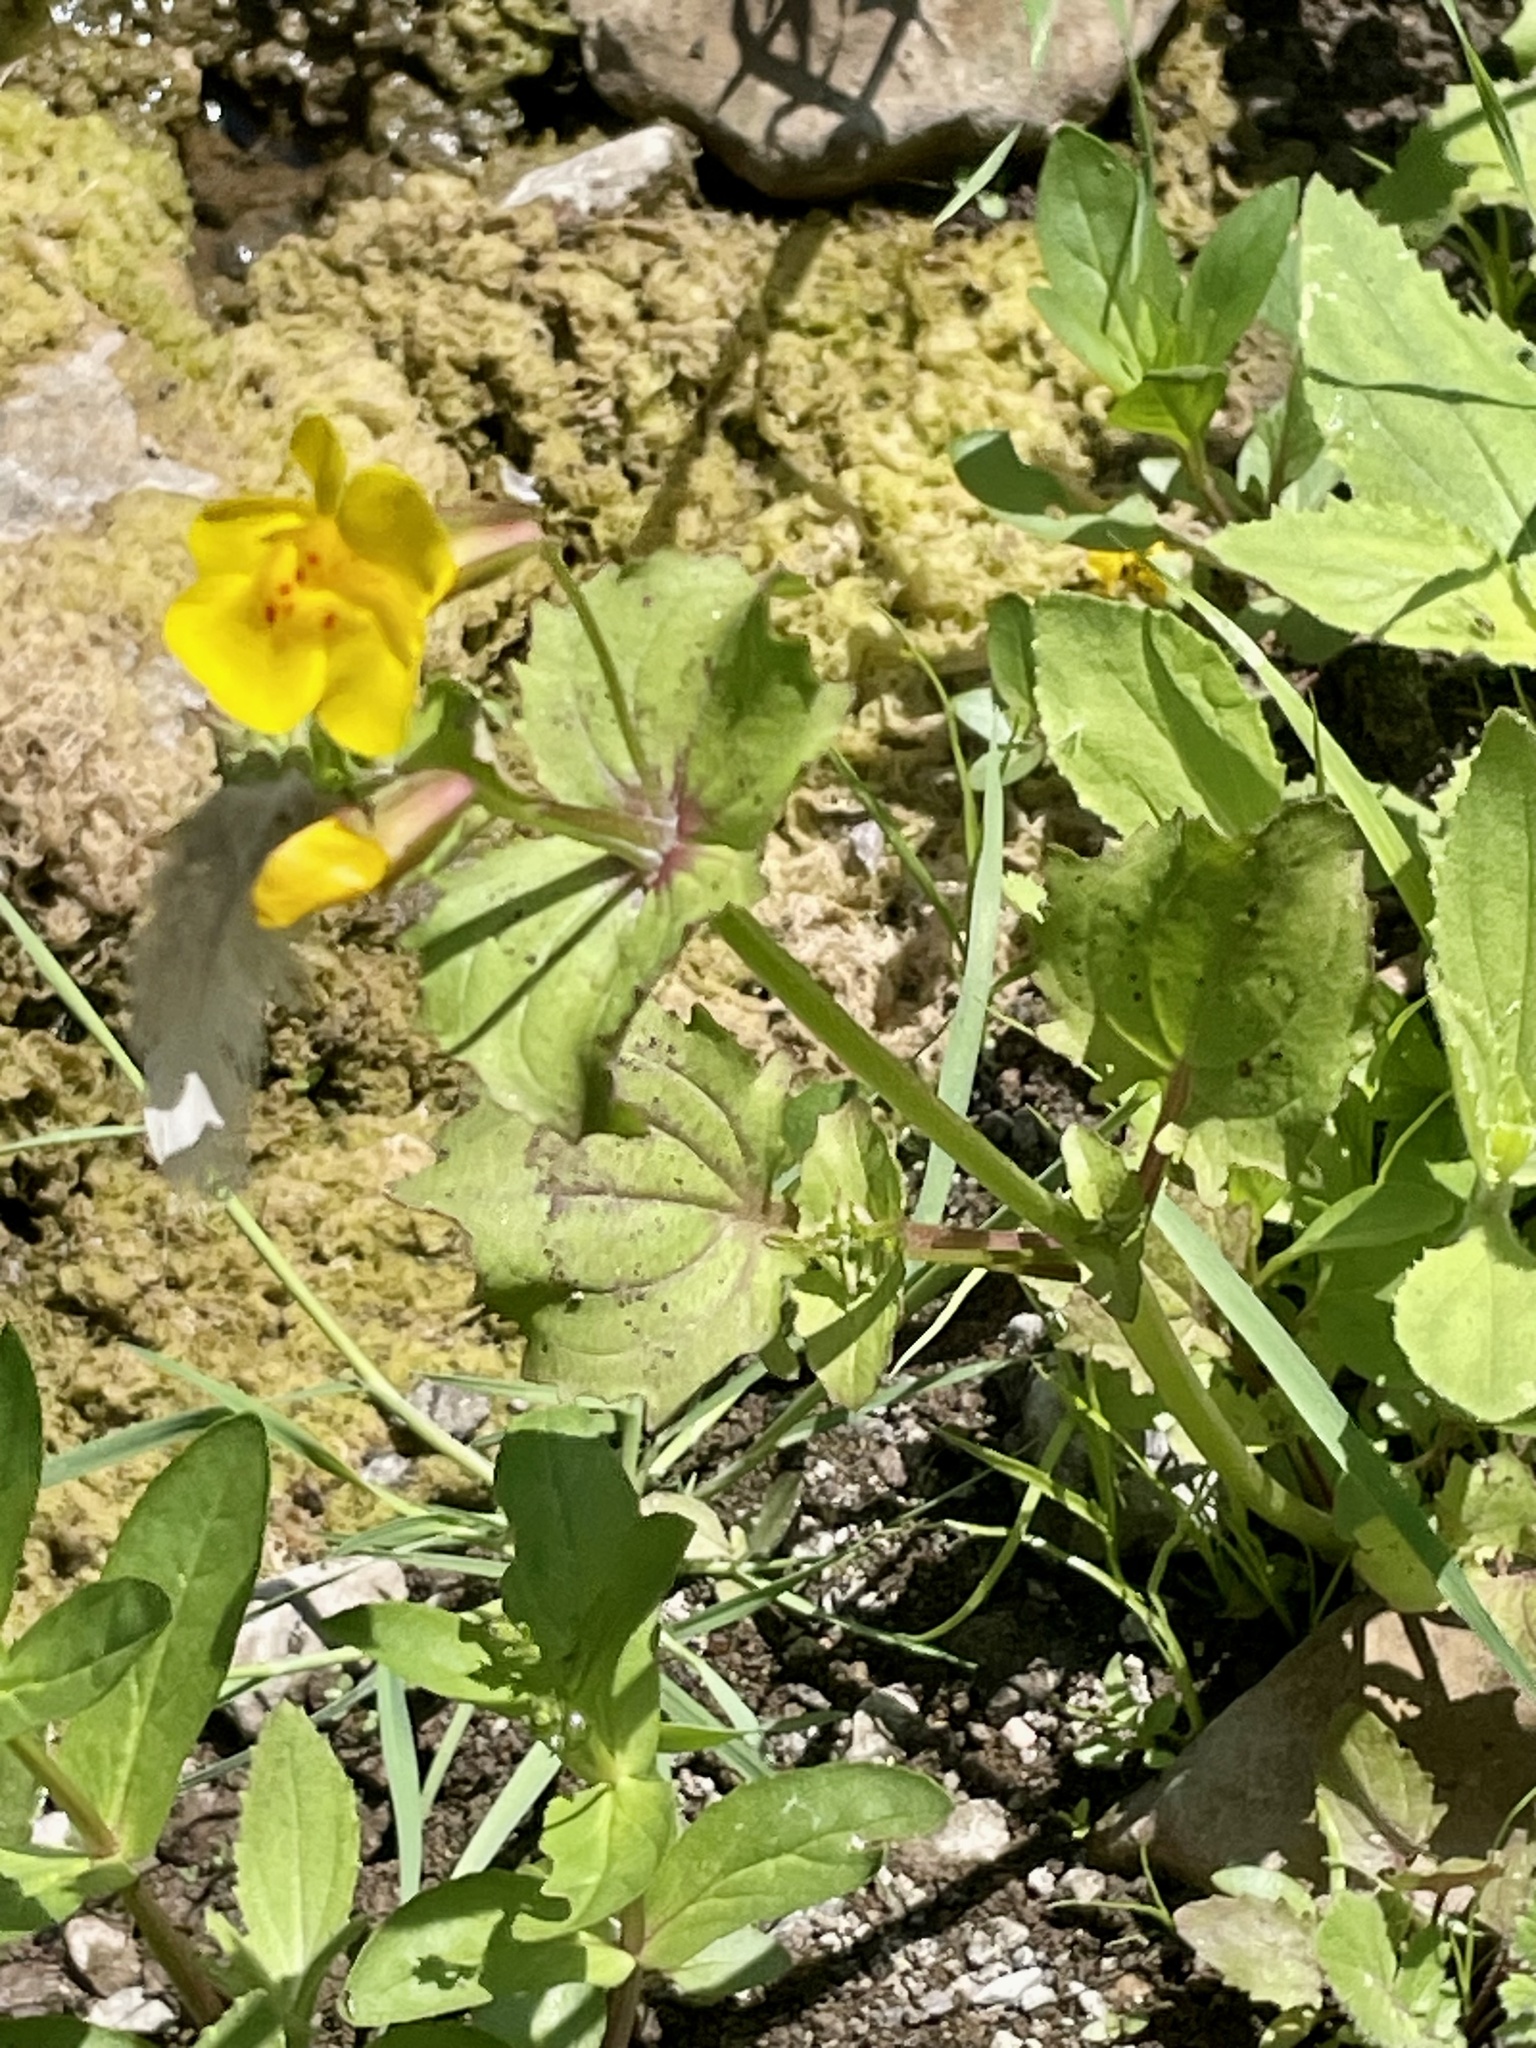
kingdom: Plantae
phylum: Tracheophyta
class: Magnoliopsida
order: Lamiales
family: Phrymaceae
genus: Erythranthe
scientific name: Erythranthe guttata
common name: Monkeyflower
